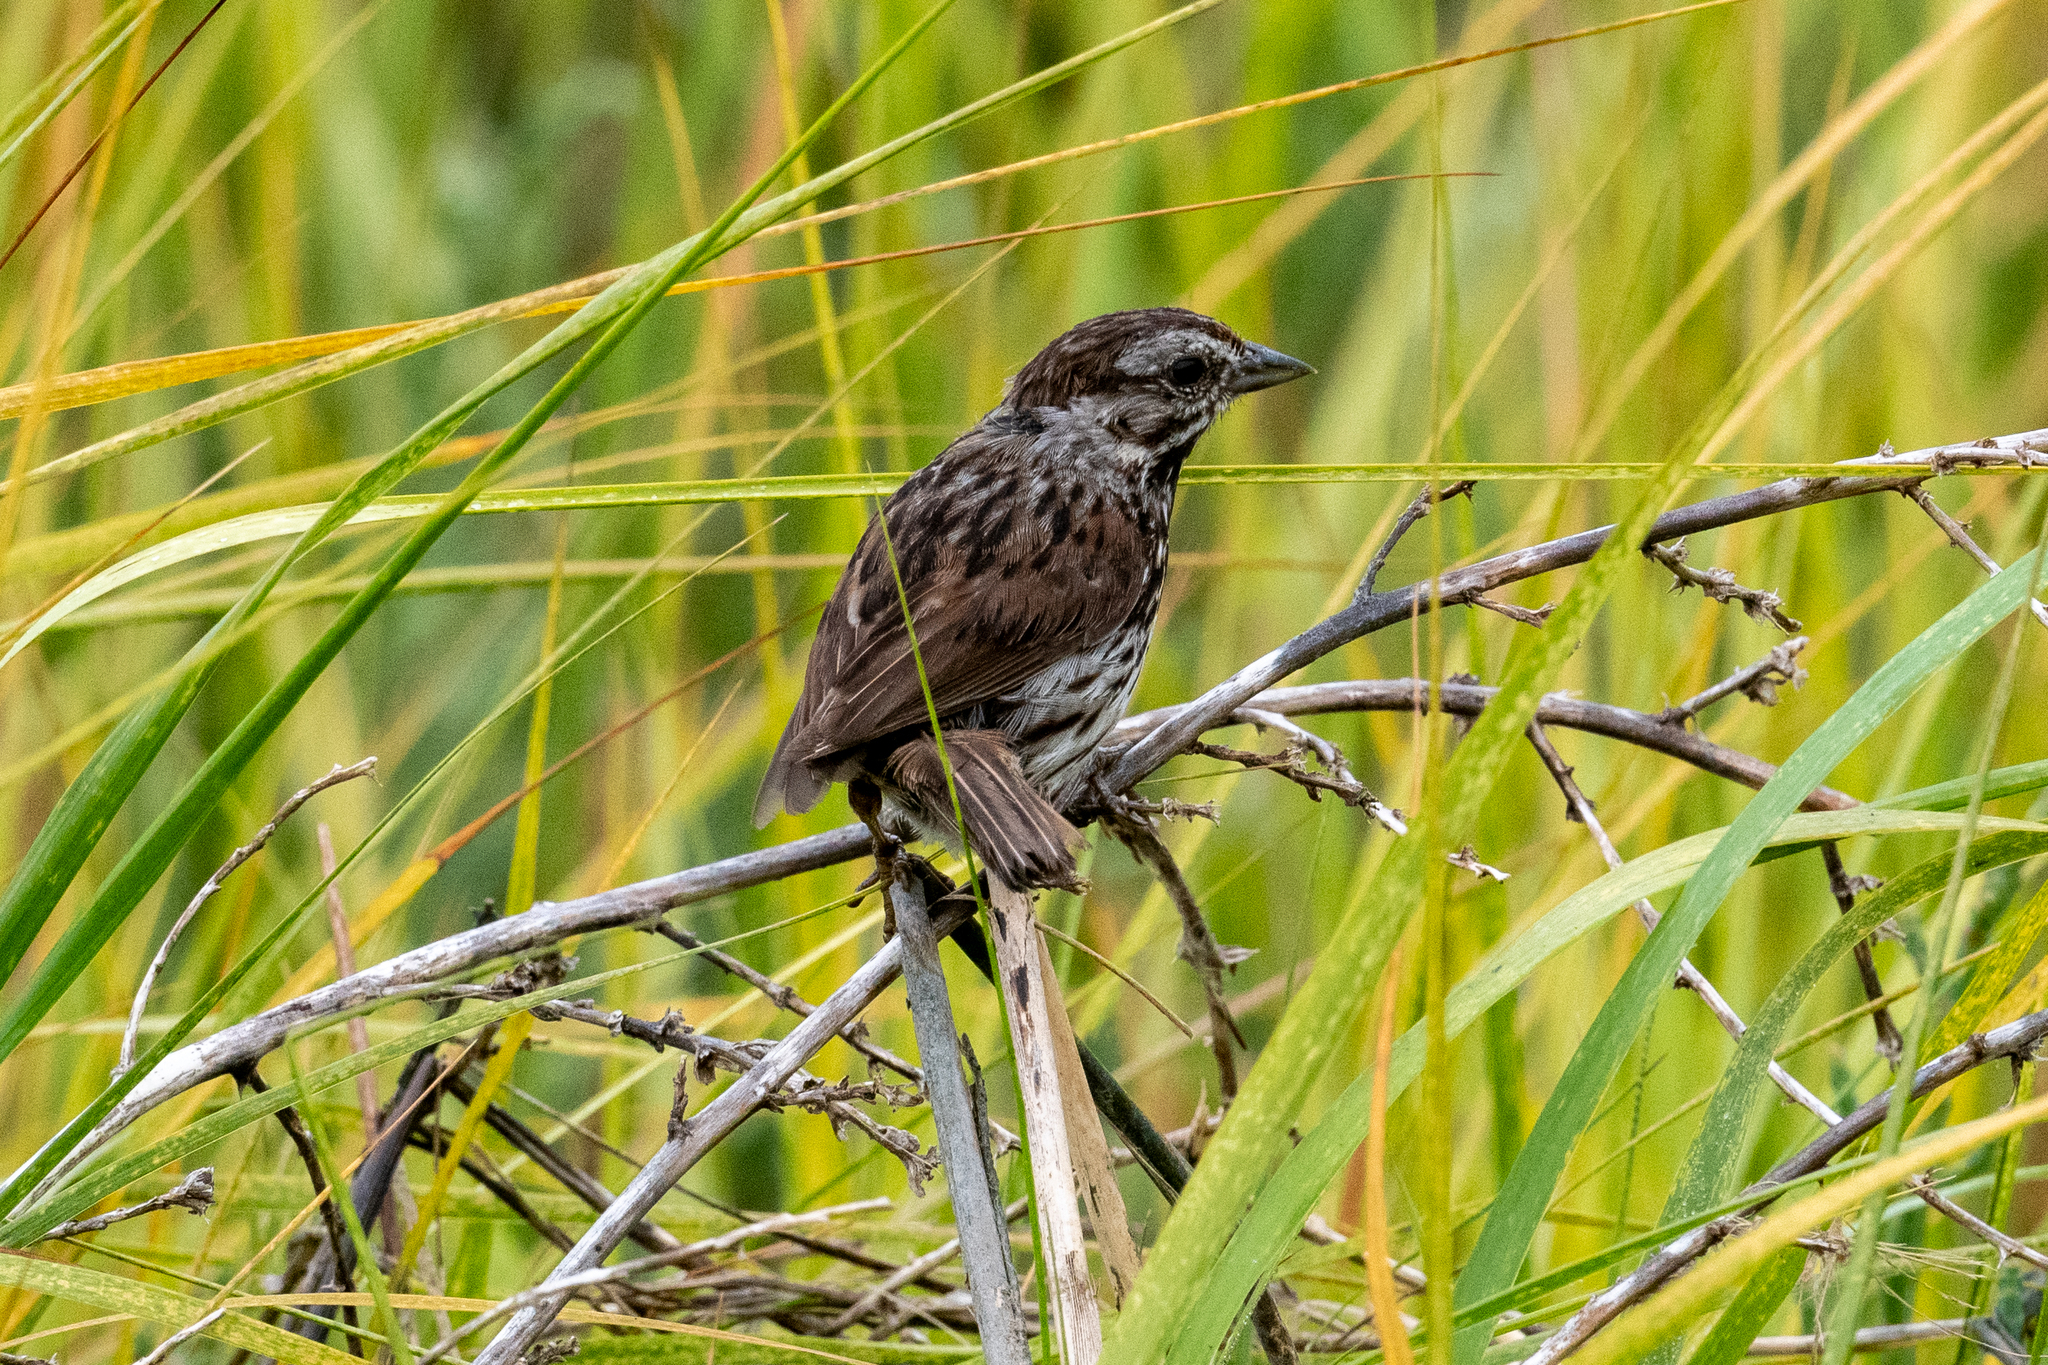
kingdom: Animalia
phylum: Chordata
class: Aves
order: Passeriformes
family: Passerellidae
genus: Melospiza
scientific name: Melospiza melodia
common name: Song sparrow
